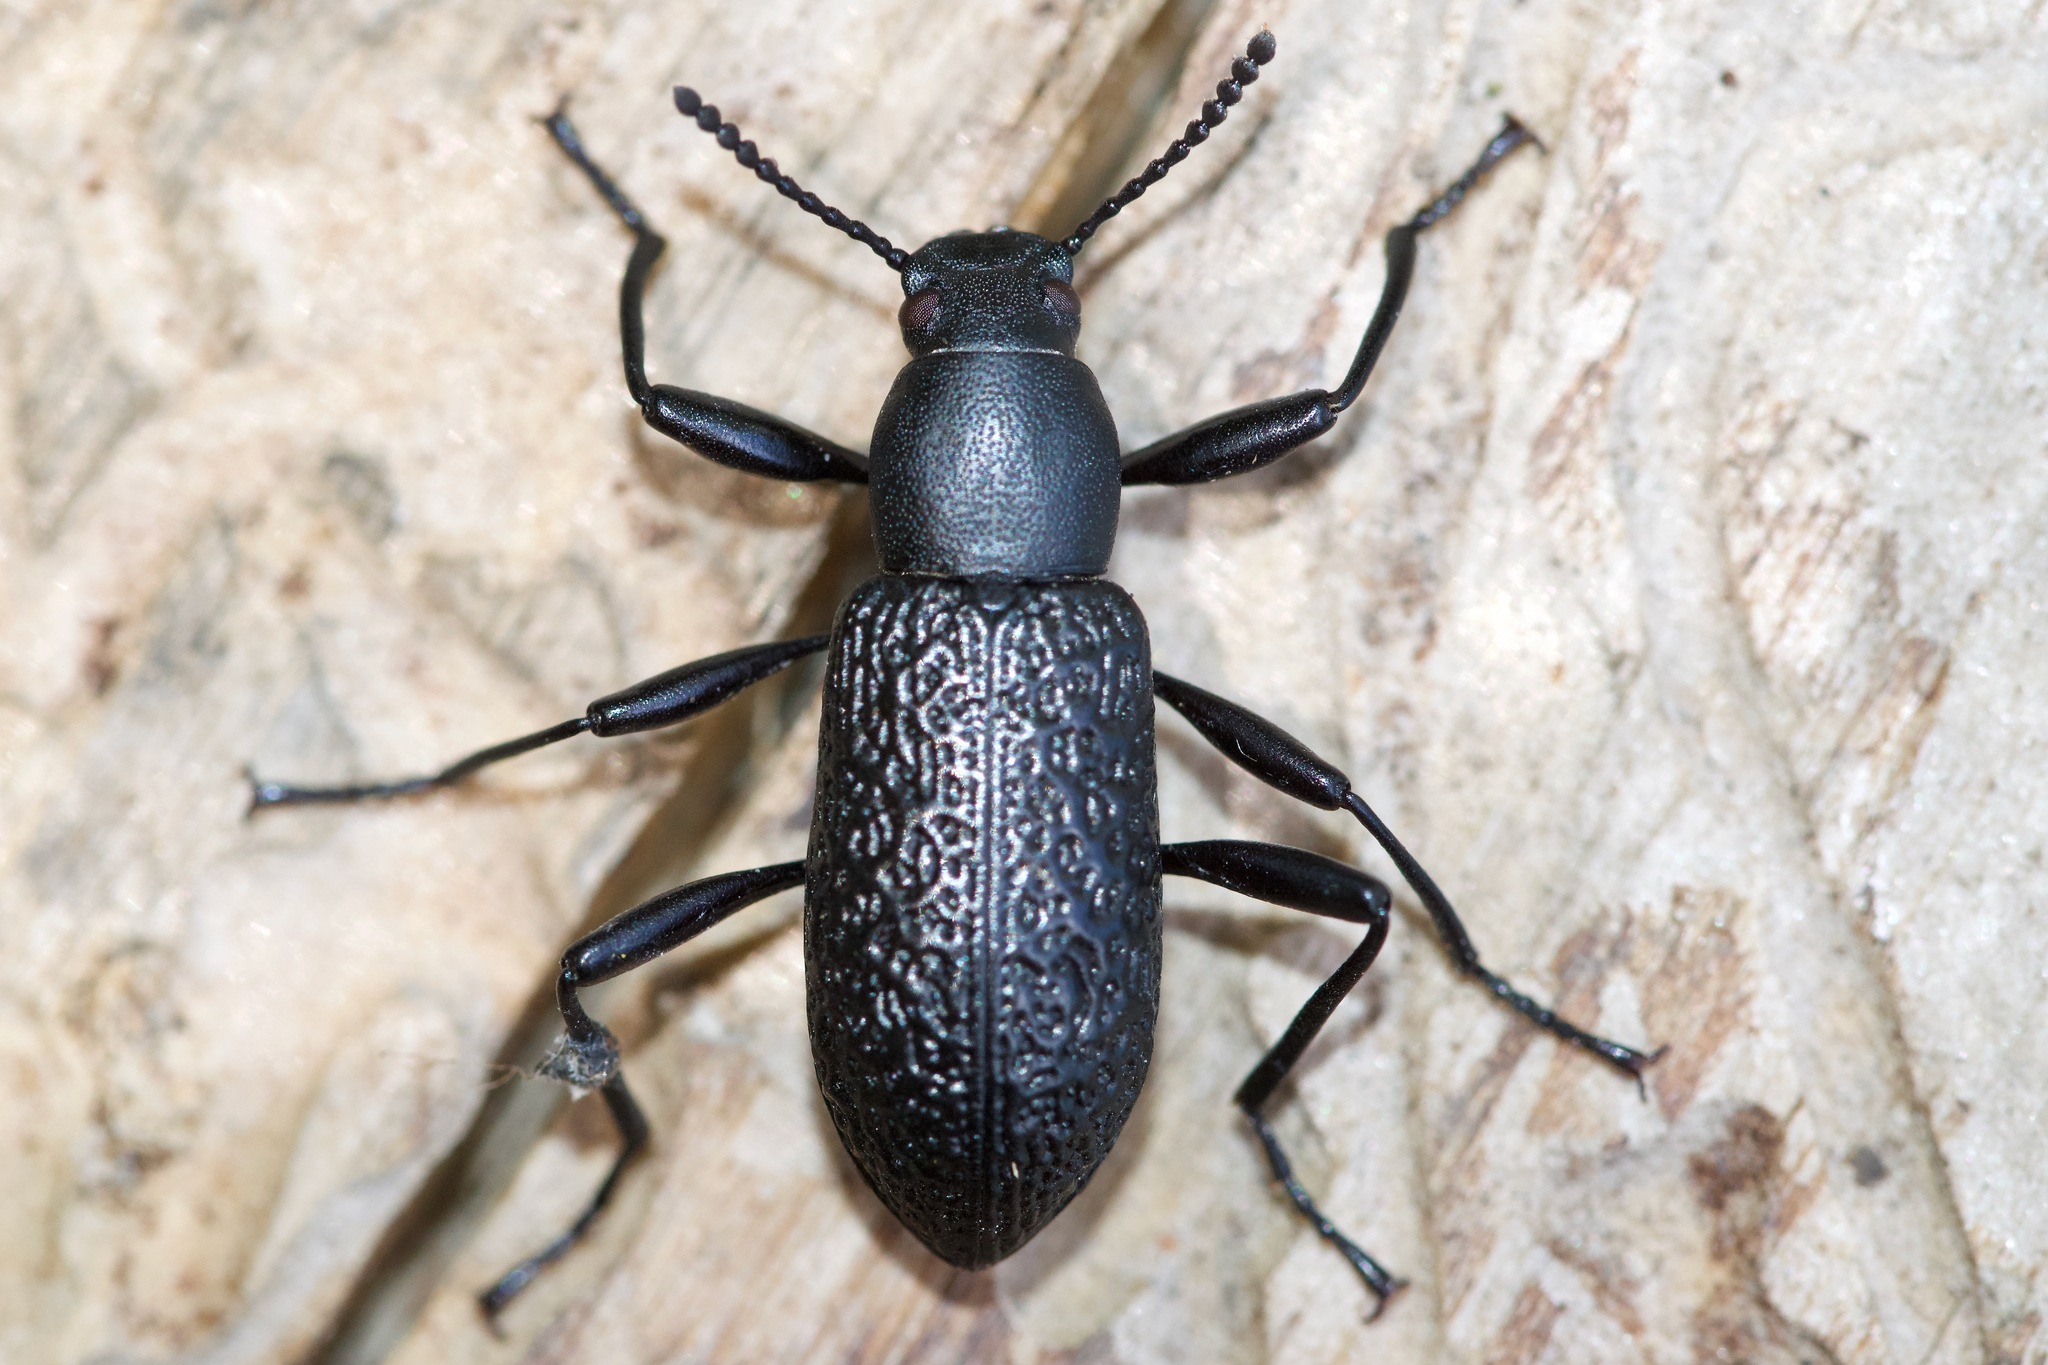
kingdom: Animalia
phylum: Arthropoda
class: Insecta
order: Coleoptera
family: Tenebrionidae
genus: Upis
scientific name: Upis ceramboides
